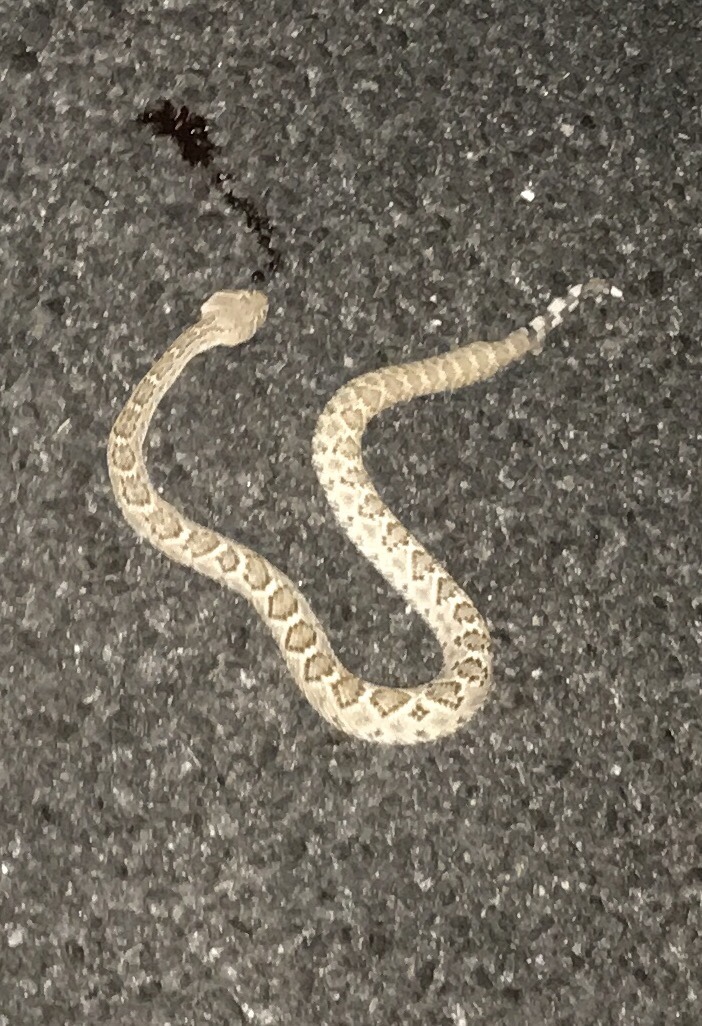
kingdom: Animalia
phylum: Chordata
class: Squamata
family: Viperidae
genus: Crotalus
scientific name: Crotalus atrox
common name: Western diamond-backed rattlesnake
